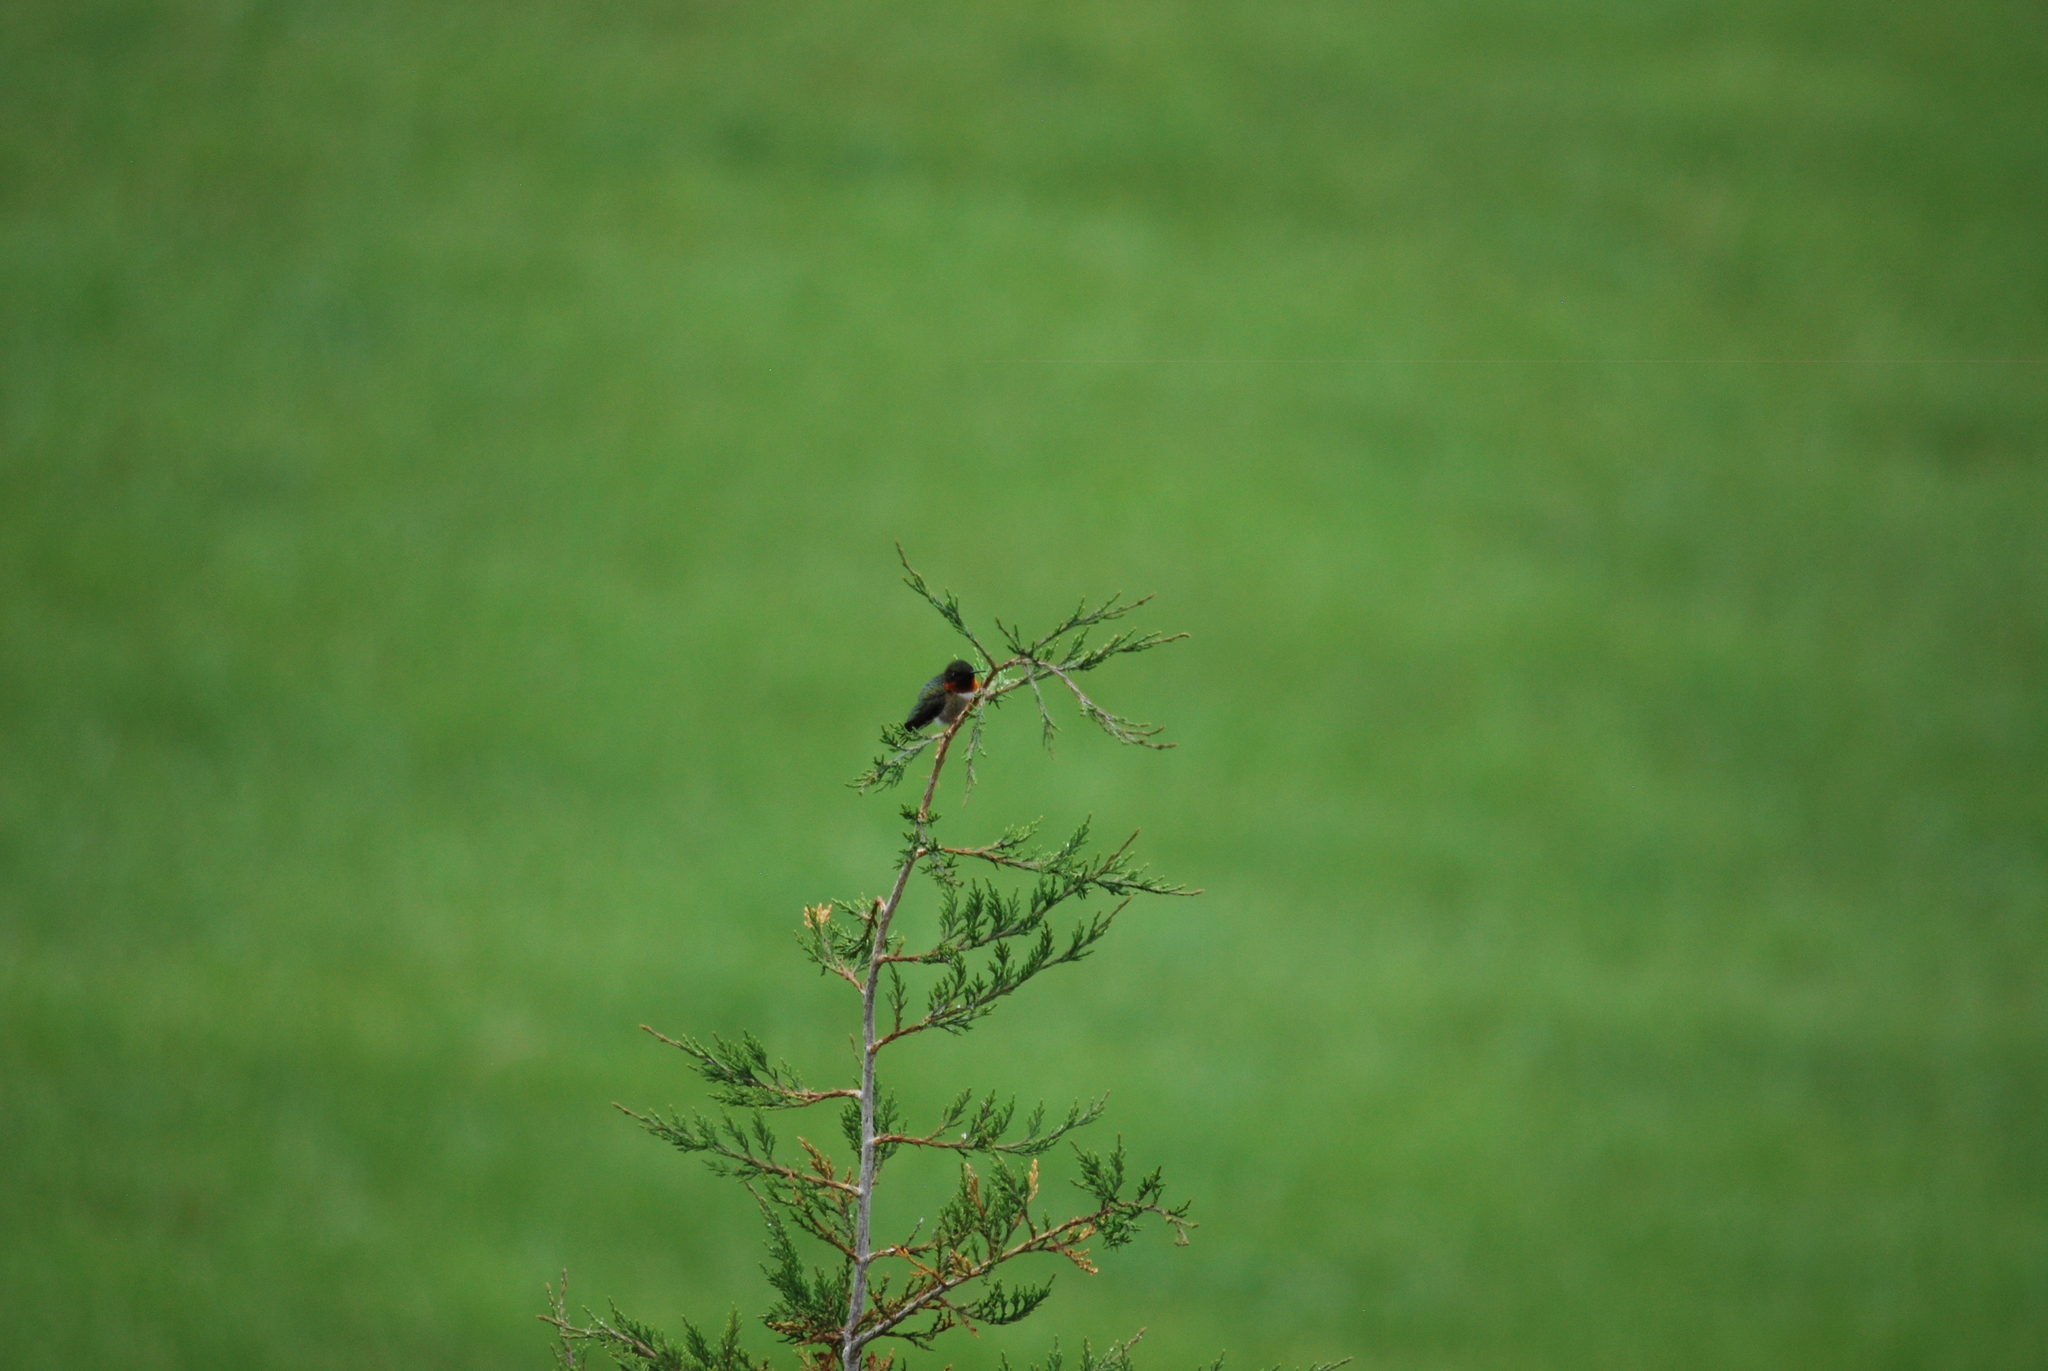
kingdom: Animalia
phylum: Chordata
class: Aves
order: Apodiformes
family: Trochilidae
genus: Archilochus
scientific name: Archilochus colubris
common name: Ruby-throated hummingbird
